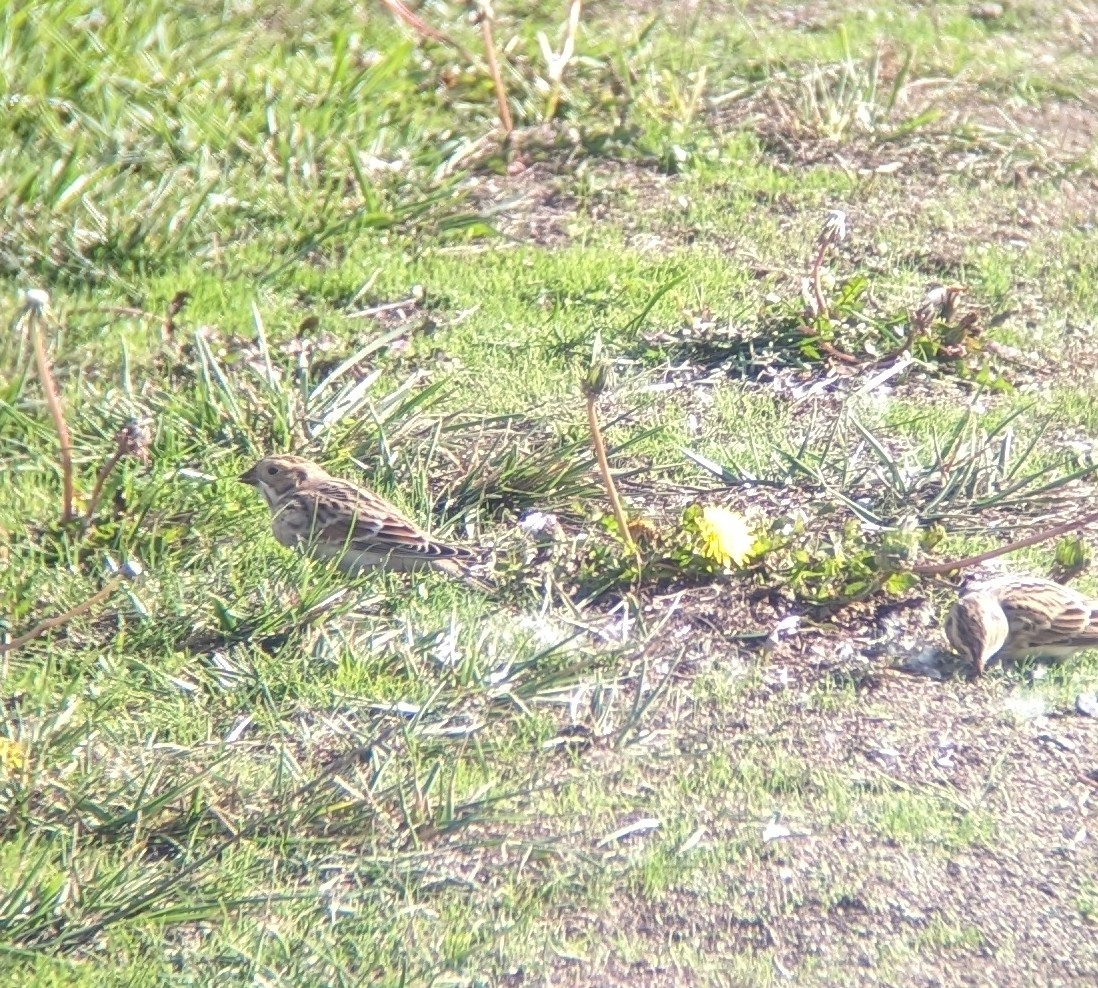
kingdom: Animalia
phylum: Chordata
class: Aves
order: Passeriformes
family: Calcariidae
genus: Calcarius
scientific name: Calcarius lapponicus
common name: Lapland longspur
